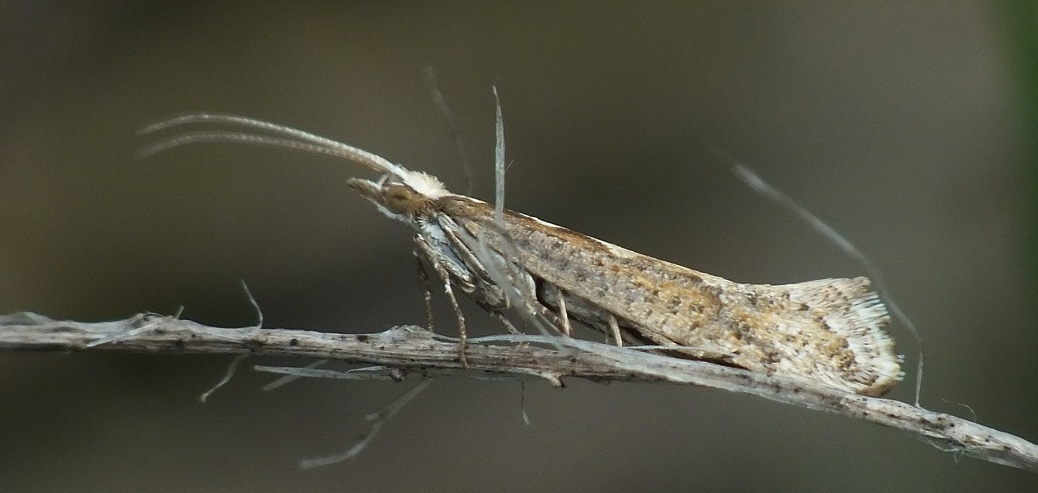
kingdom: Animalia
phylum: Arthropoda
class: Insecta
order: Lepidoptera
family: Plutellidae
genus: Plutella
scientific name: Plutella xylostella
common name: Diamond-back moth
